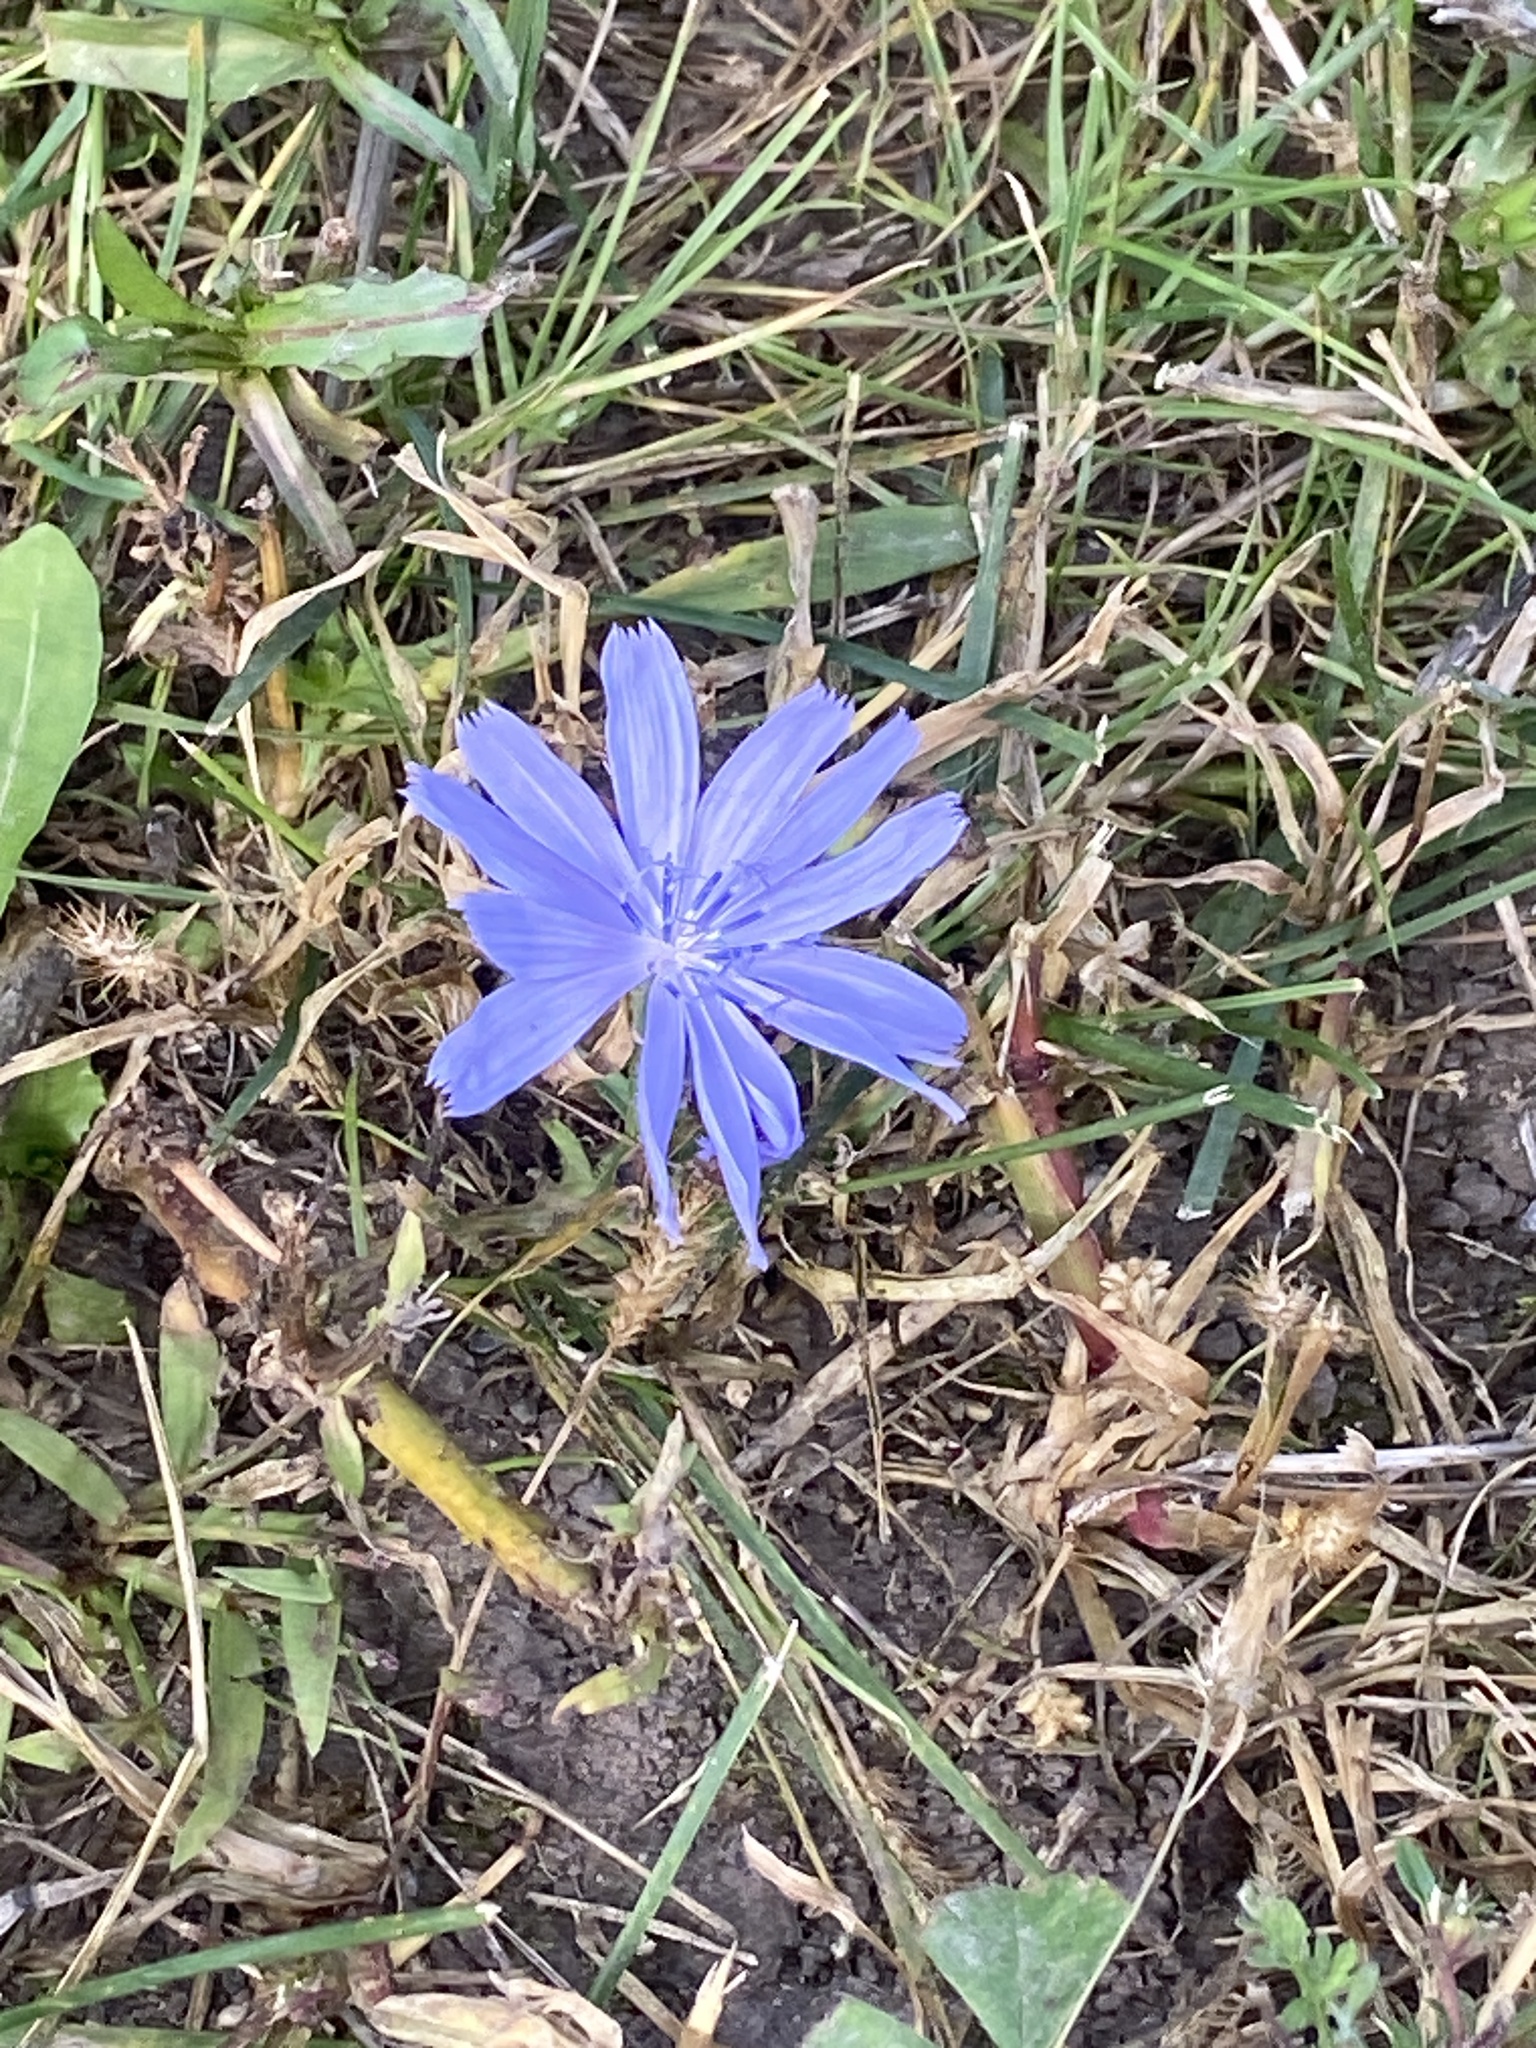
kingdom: Plantae
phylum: Tracheophyta
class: Magnoliopsida
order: Asterales
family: Asteraceae
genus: Cichorium
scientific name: Cichorium intybus
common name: Chicory
